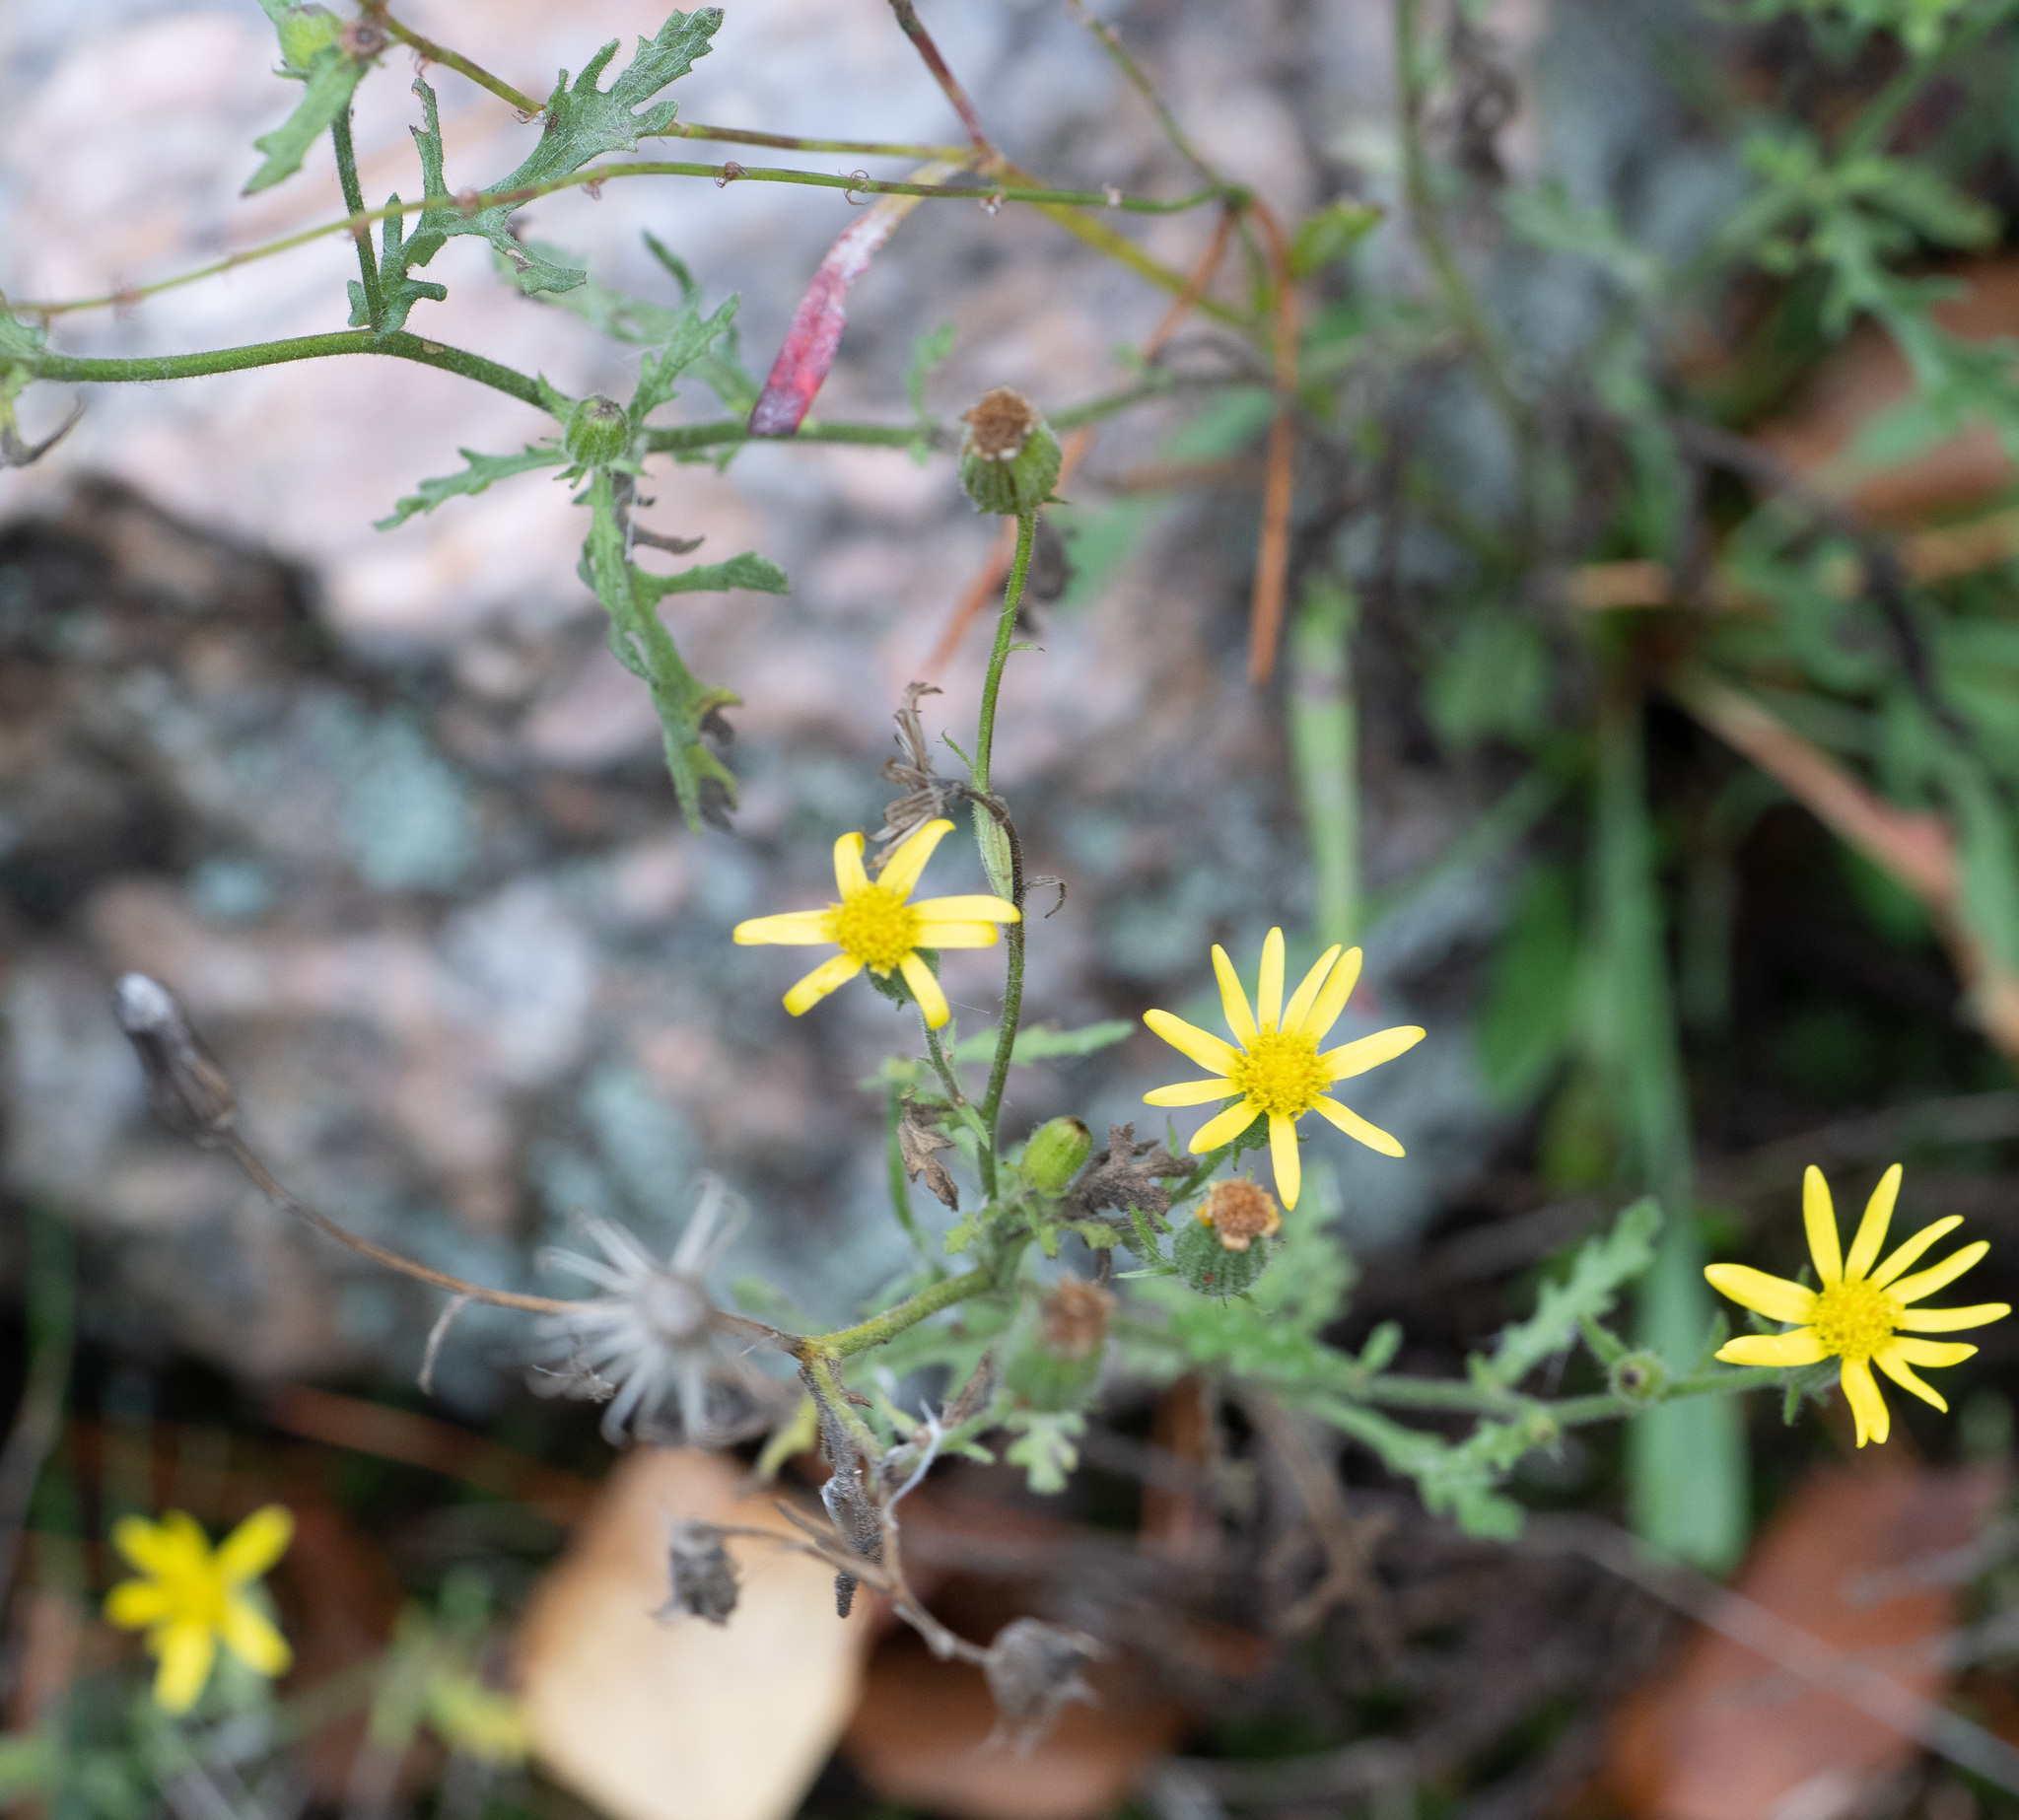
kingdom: Plantae
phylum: Tracheophyta
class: Magnoliopsida
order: Asterales
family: Asteraceae
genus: Senecio
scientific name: Senecio viscosus
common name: Sticky groundsel
